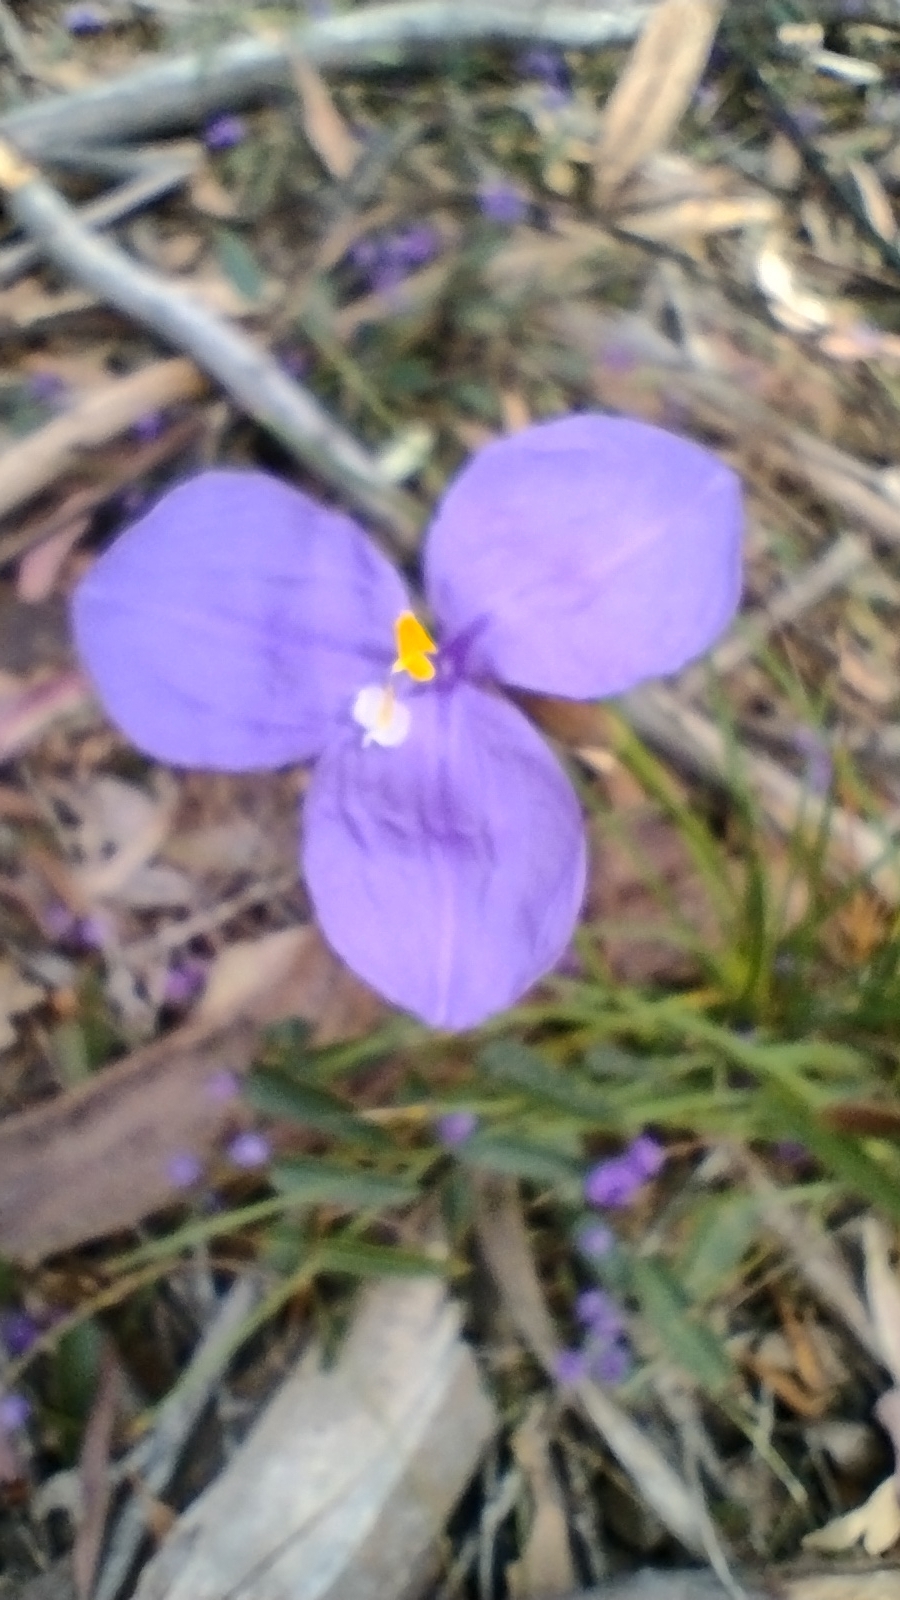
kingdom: Plantae
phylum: Tracheophyta
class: Liliopsida
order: Asparagales
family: Iridaceae
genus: Patersonia
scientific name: Patersonia glabrata
